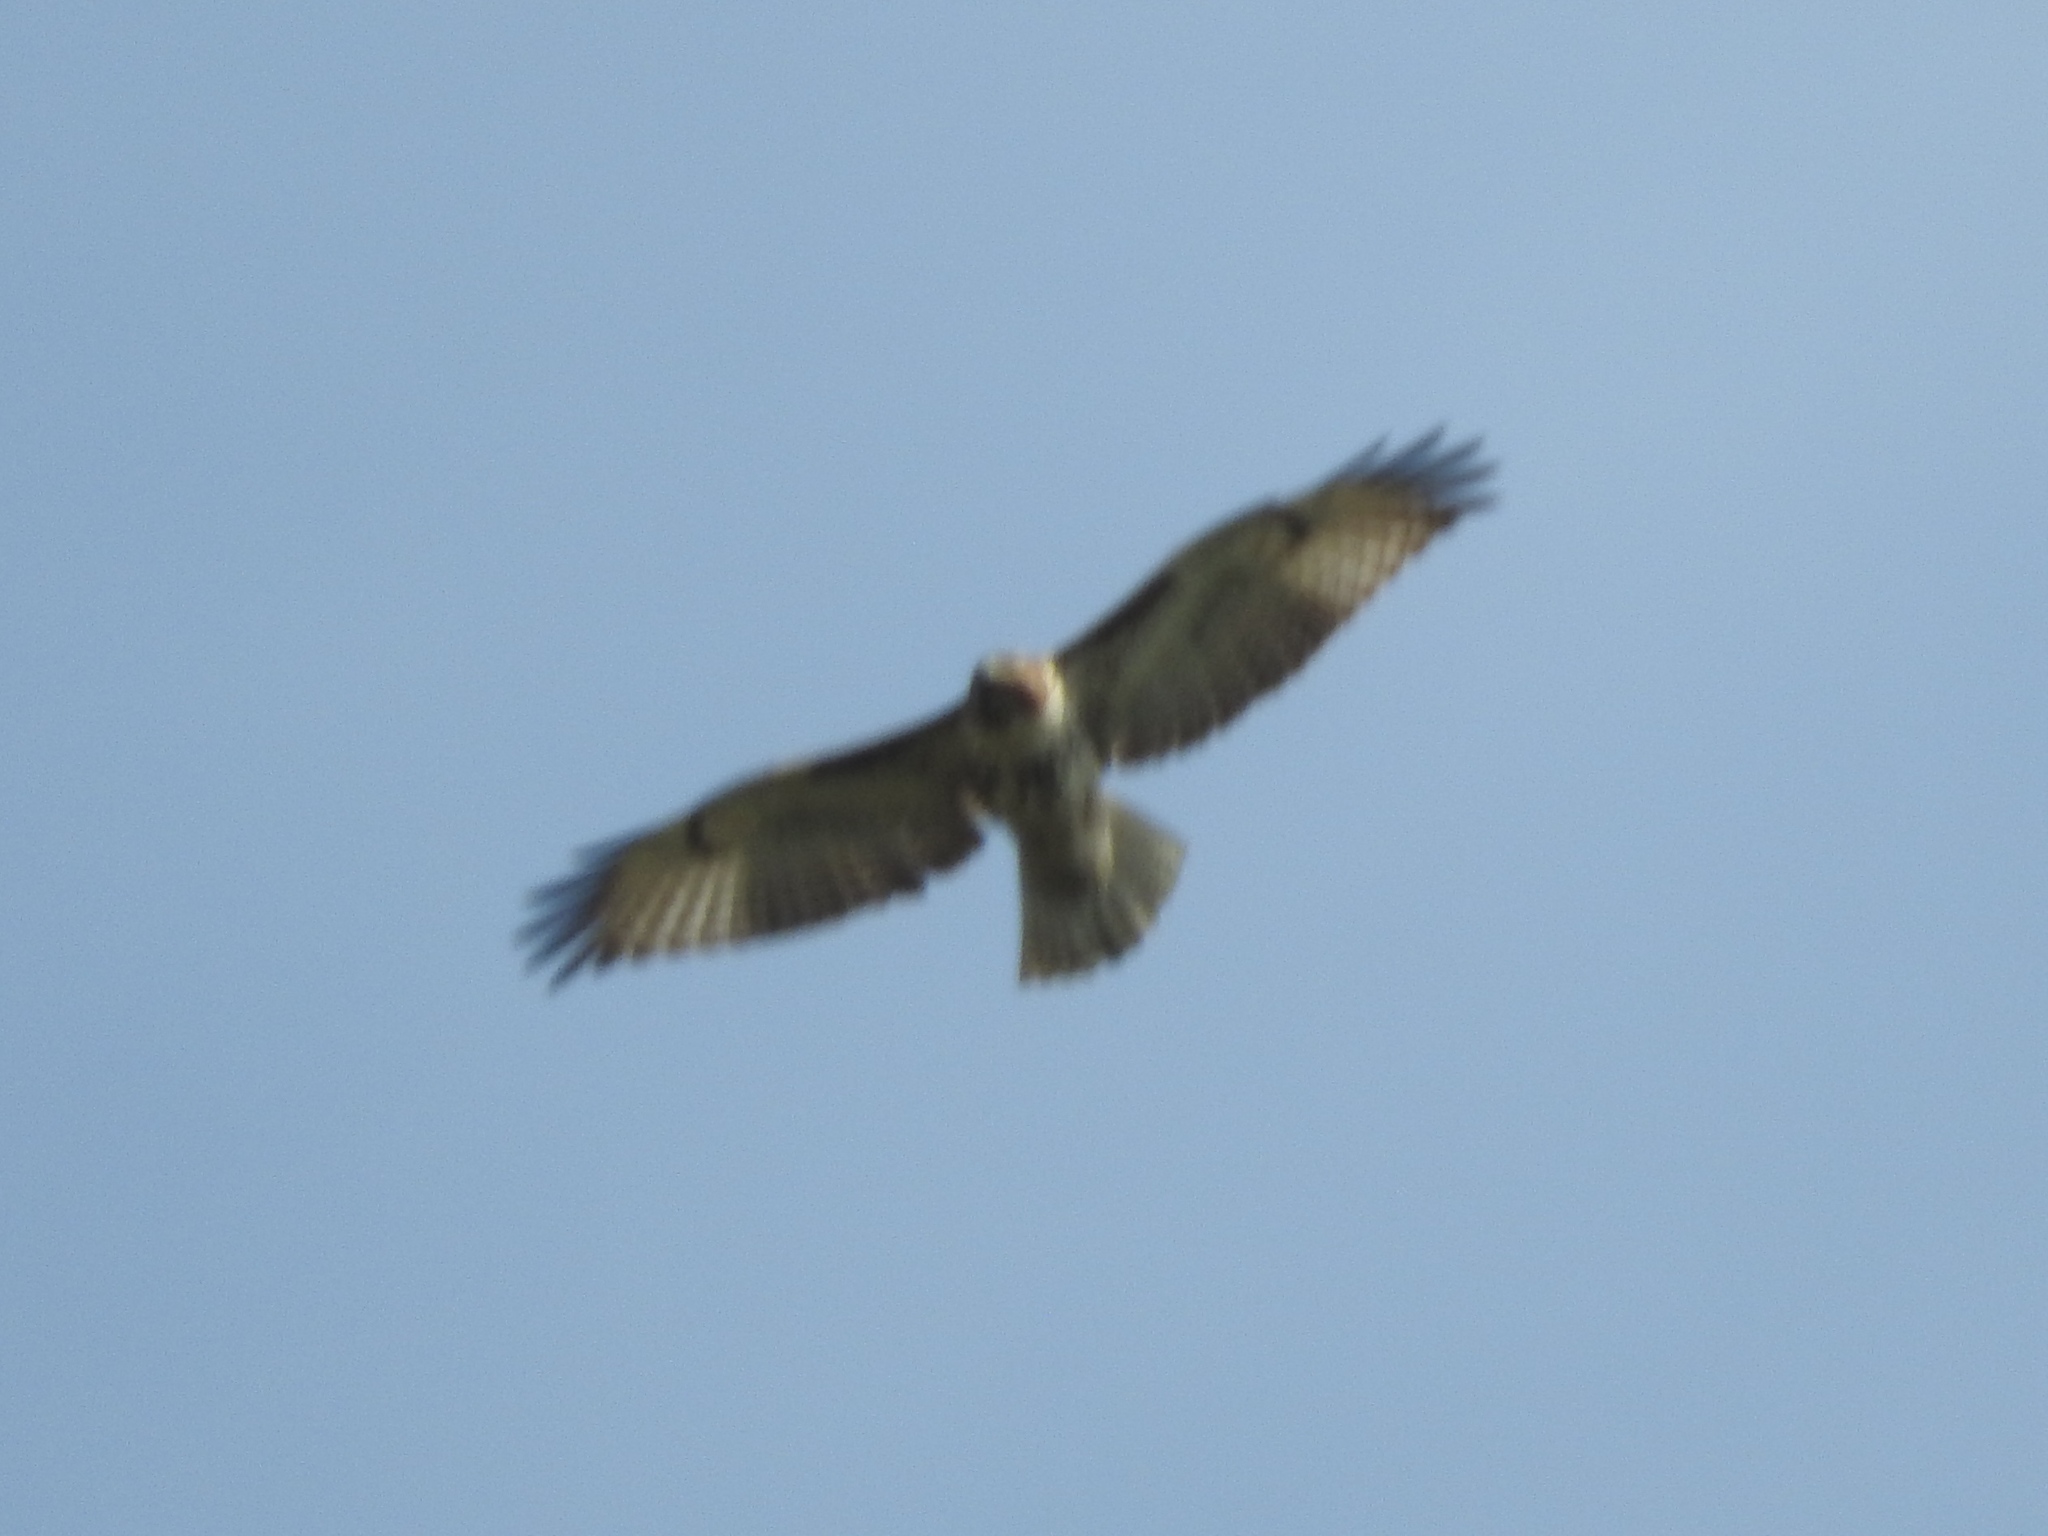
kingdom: Animalia
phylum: Chordata
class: Aves
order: Accipitriformes
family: Accipitridae
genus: Buteo
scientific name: Buteo jamaicensis
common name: Red-tailed hawk
